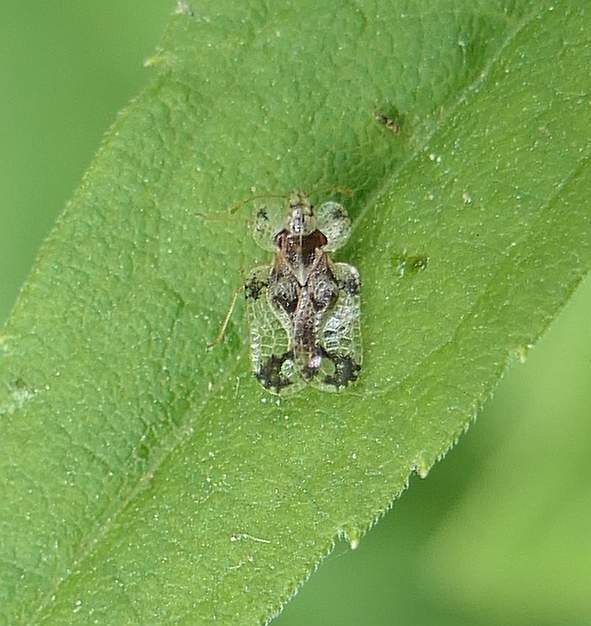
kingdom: Animalia
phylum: Arthropoda
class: Insecta
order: Hemiptera
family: Tingidae
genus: Corythucha
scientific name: Corythucha heidemanni
